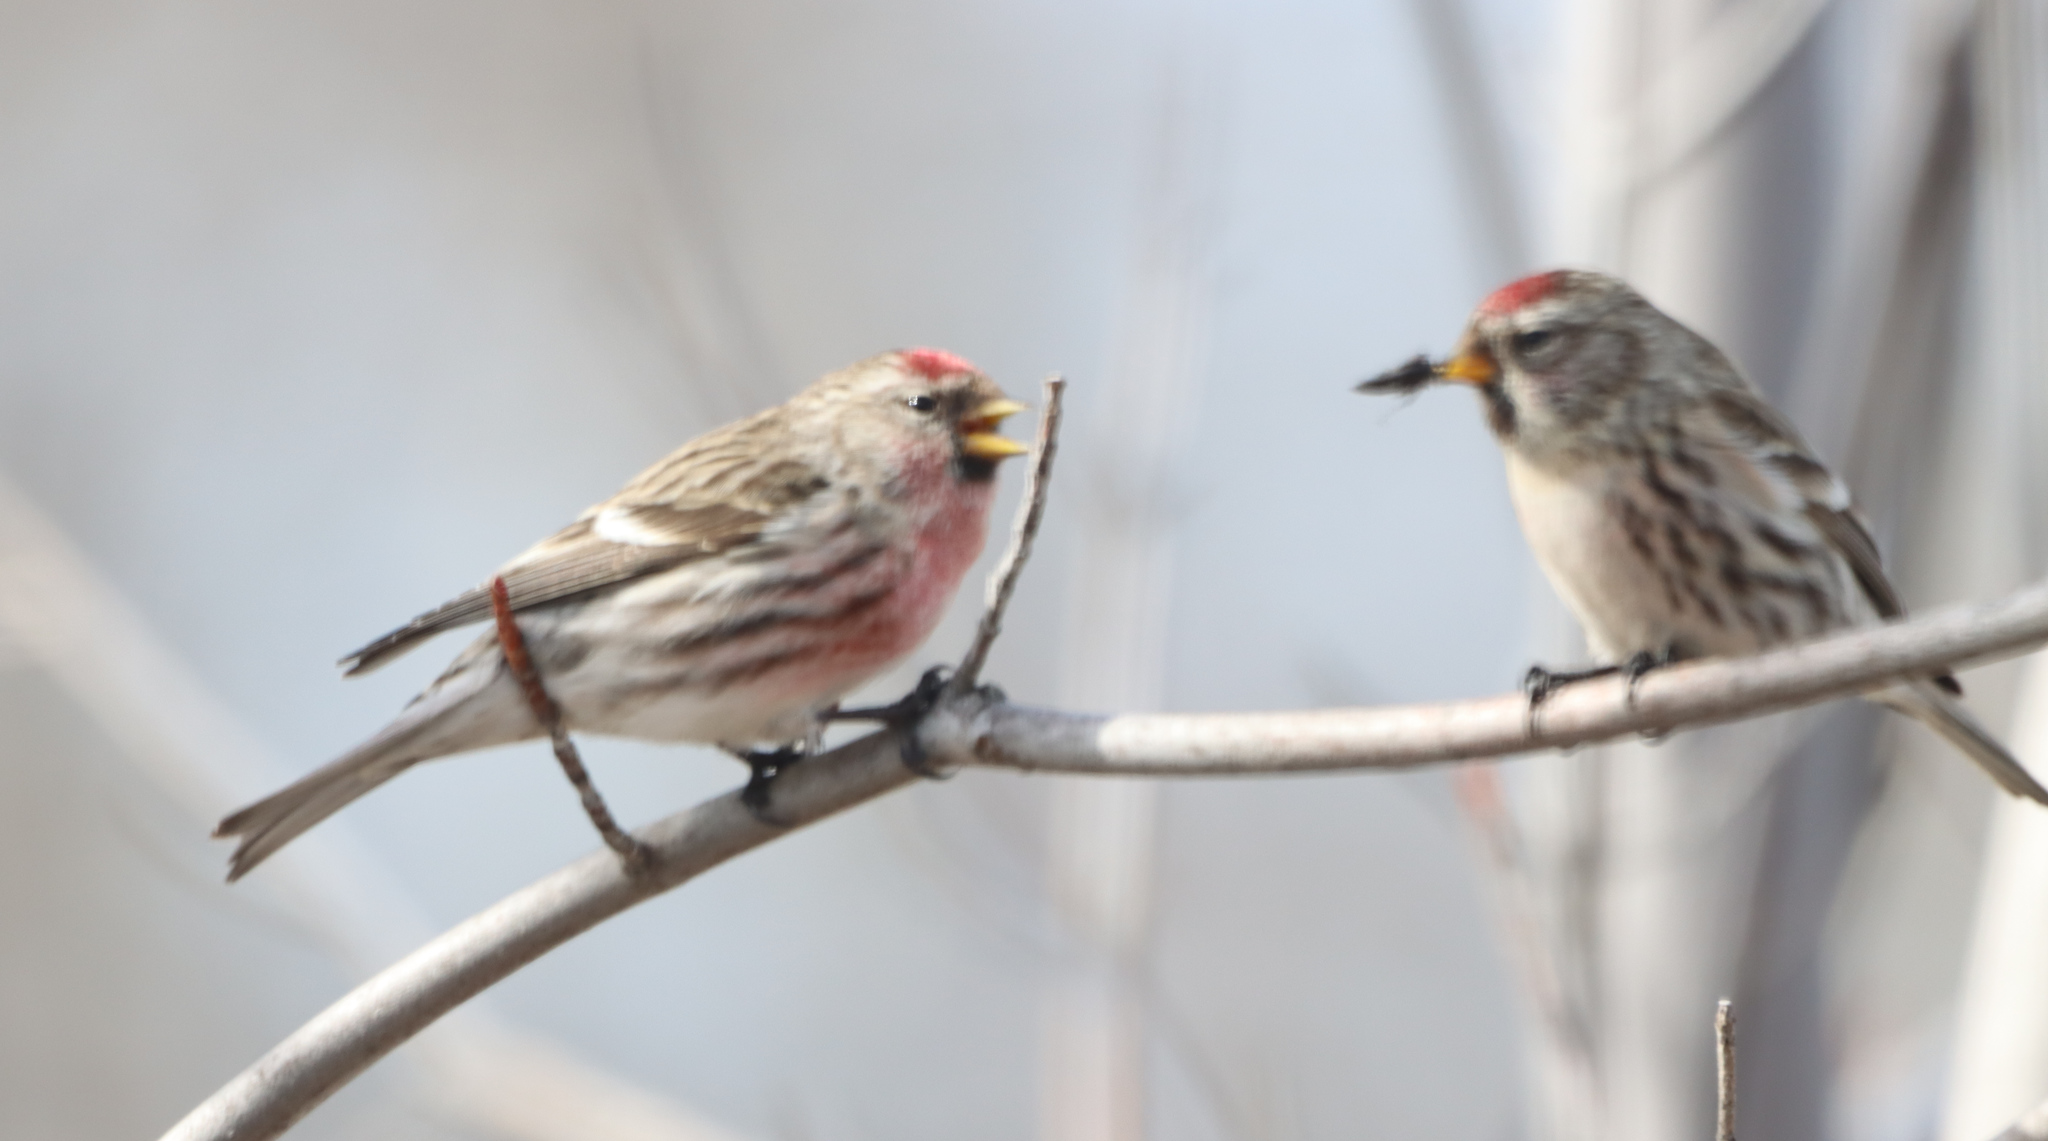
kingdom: Animalia
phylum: Chordata
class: Aves
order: Passeriformes
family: Fringillidae
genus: Acanthis
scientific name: Acanthis flammea
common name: Common redpoll
